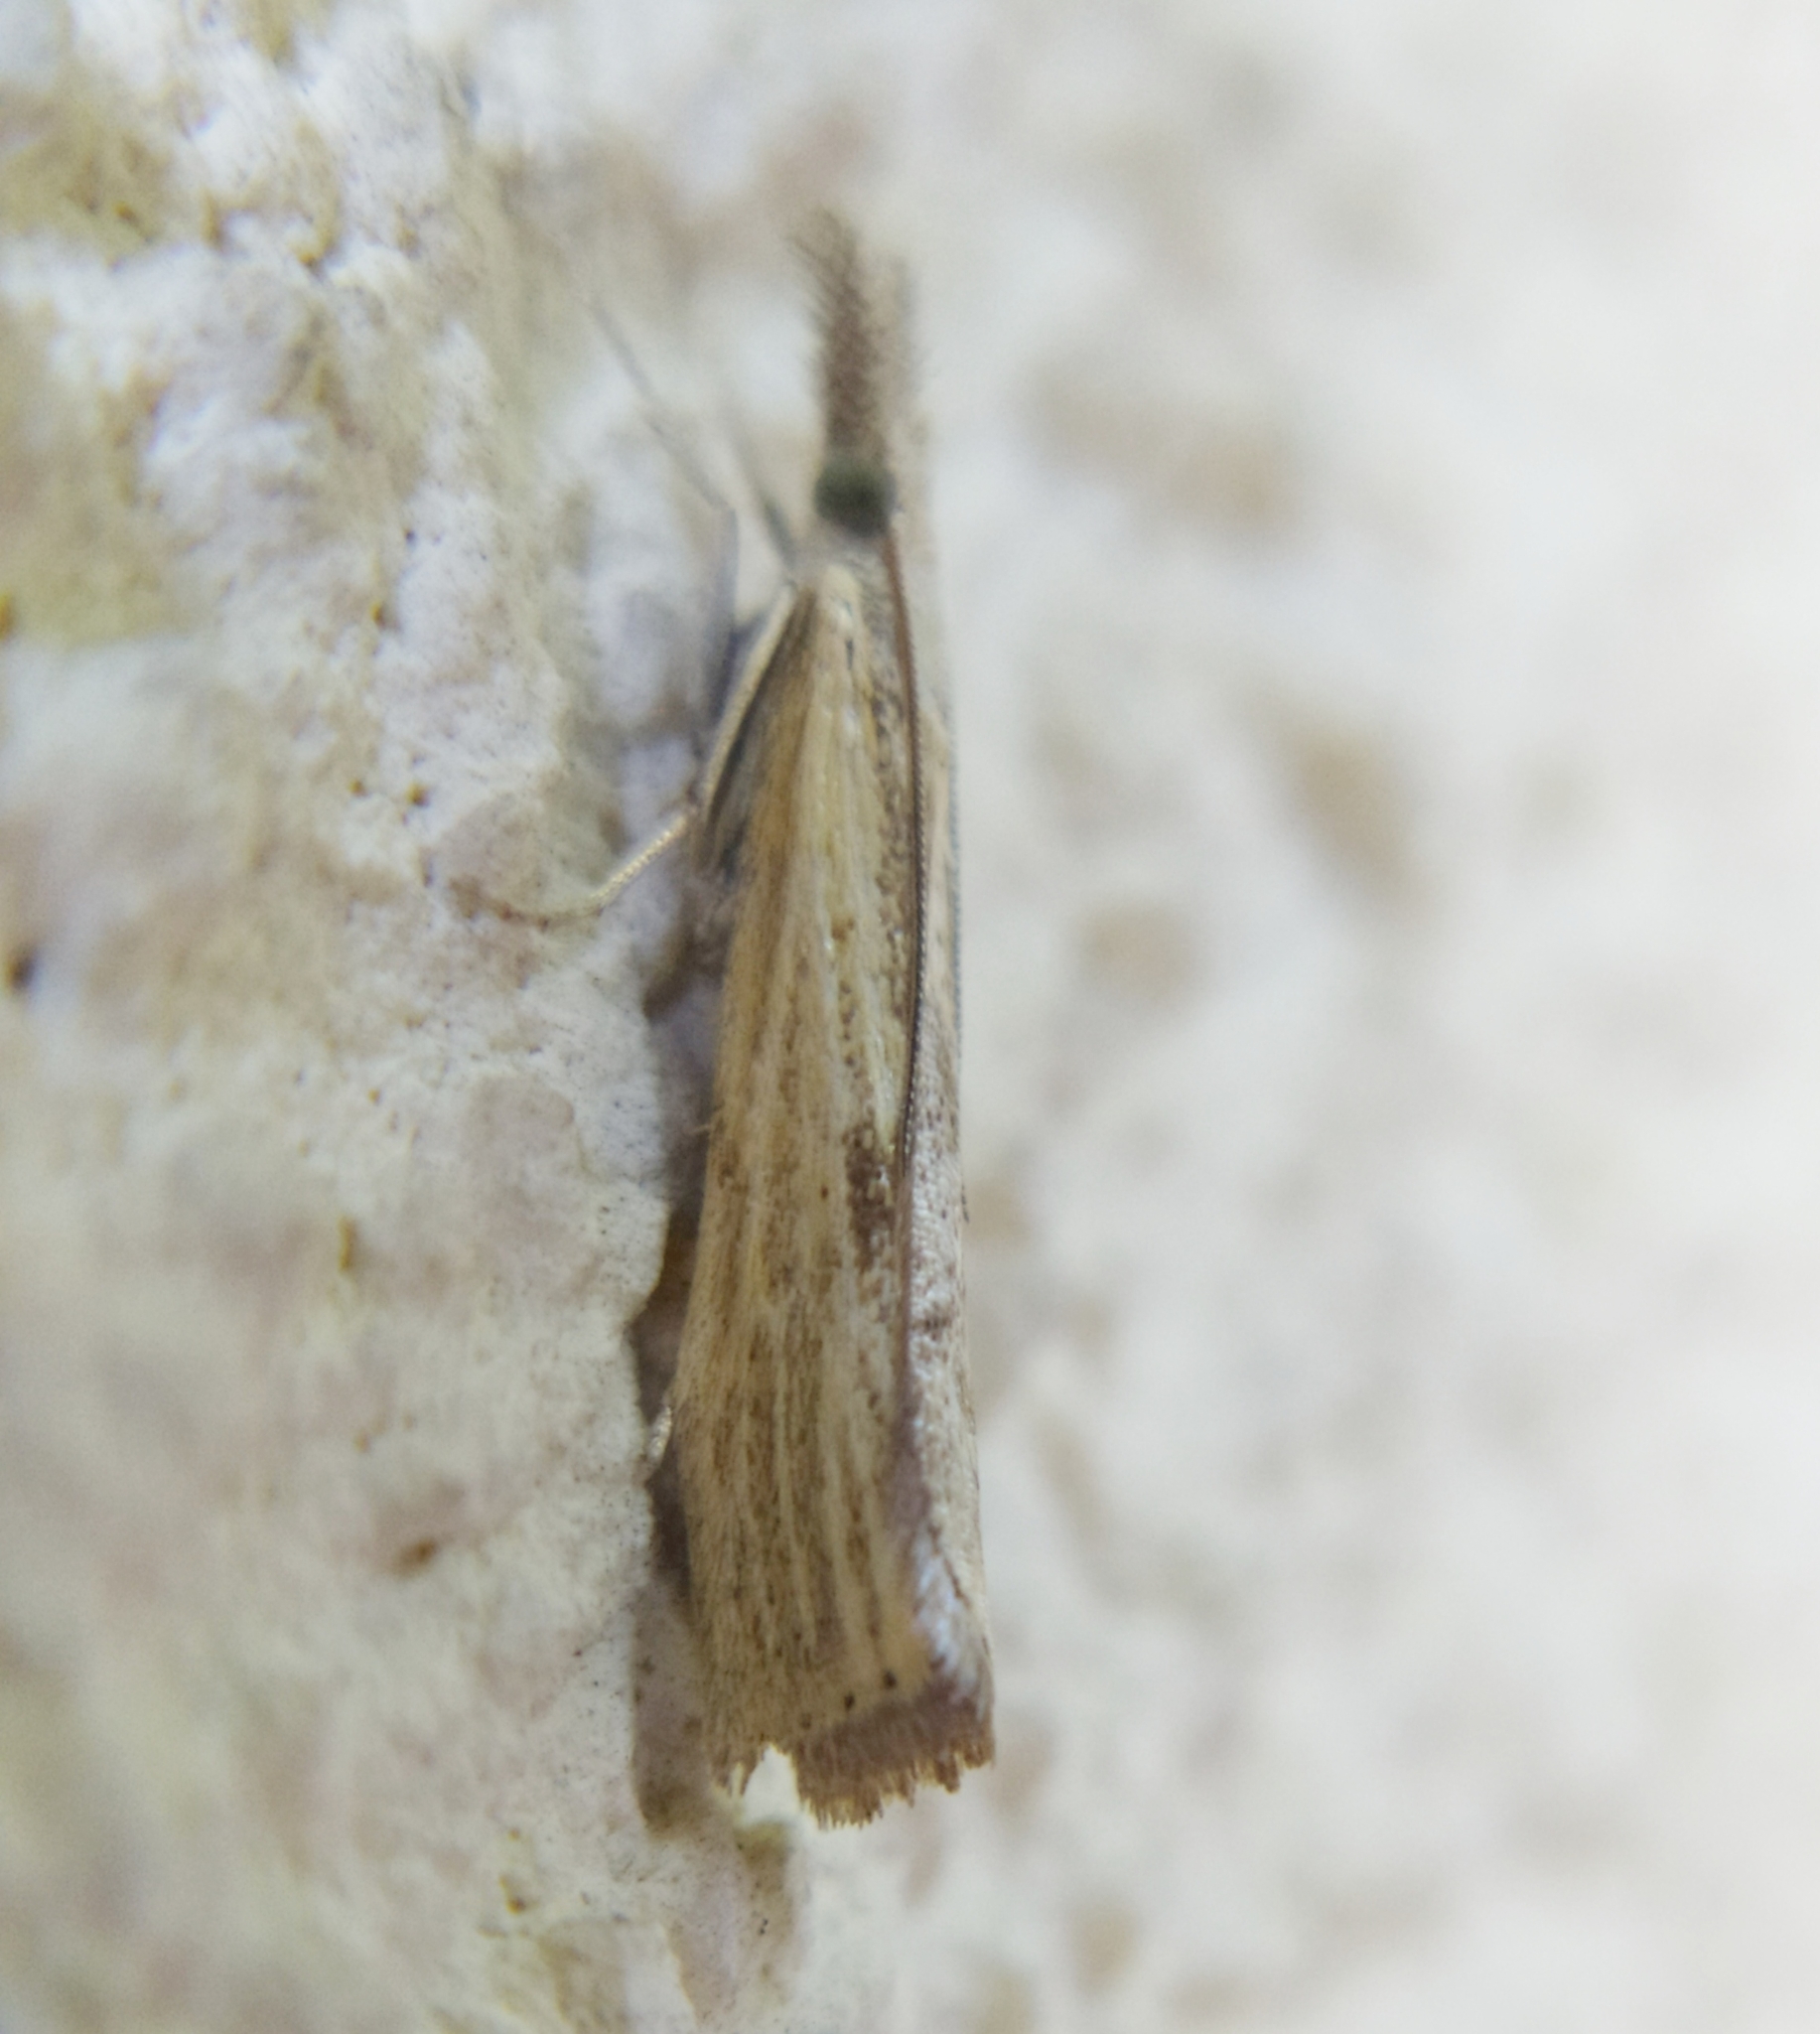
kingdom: Animalia
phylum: Arthropoda
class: Insecta
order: Lepidoptera
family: Crambidae
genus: Agriphila
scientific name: Agriphila inquinatella
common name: Barred grass-veneer
